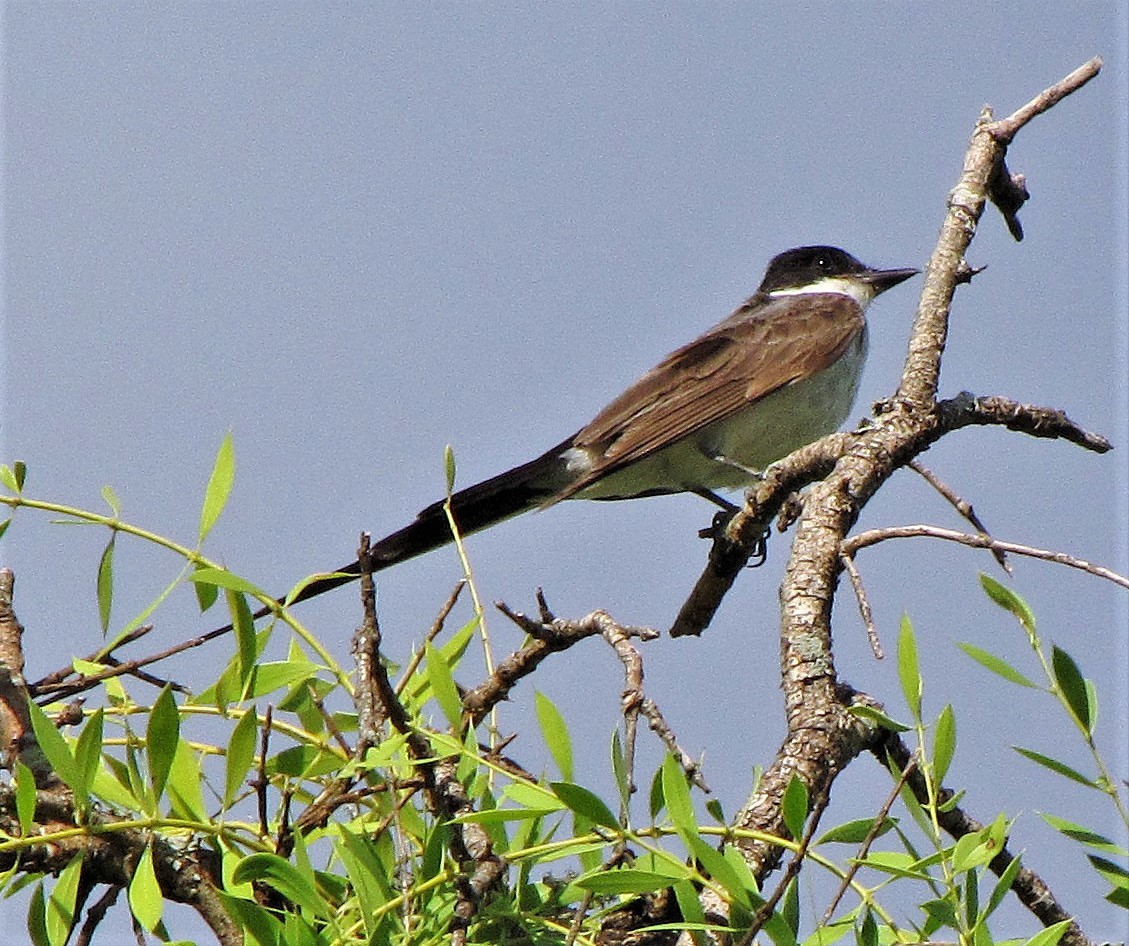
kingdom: Animalia
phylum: Chordata
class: Aves
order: Passeriformes
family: Tyrannidae
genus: Tyrannus
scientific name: Tyrannus savana
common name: Fork-tailed flycatcher
